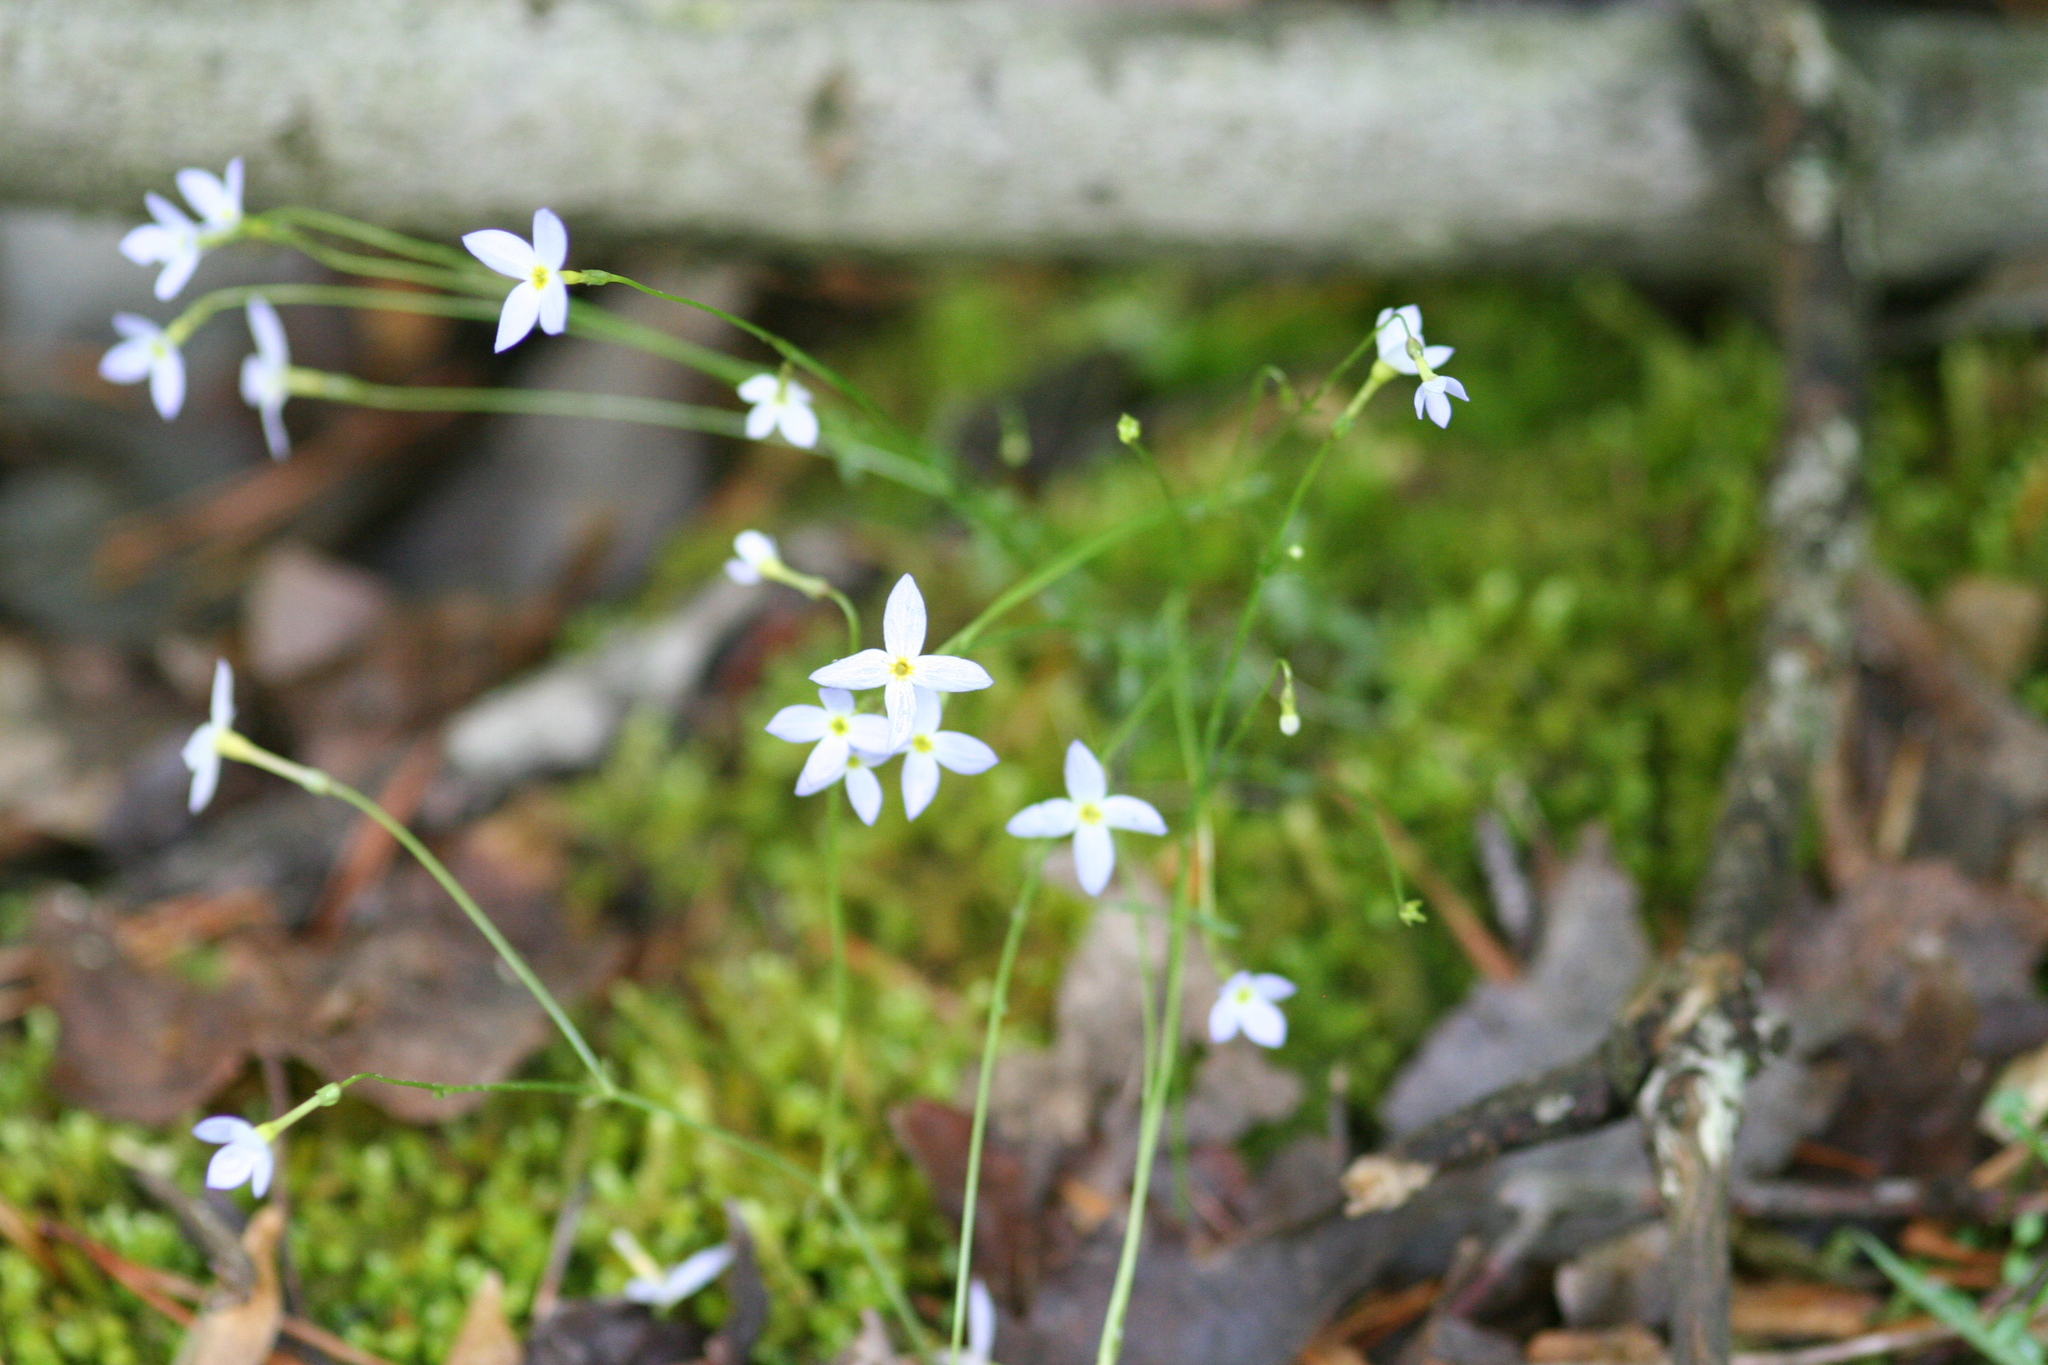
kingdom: Plantae
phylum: Tracheophyta
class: Magnoliopsida
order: Gentianales
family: Rubiaceae
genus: Houstonia
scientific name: Houstonia caerulea
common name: Bluets
